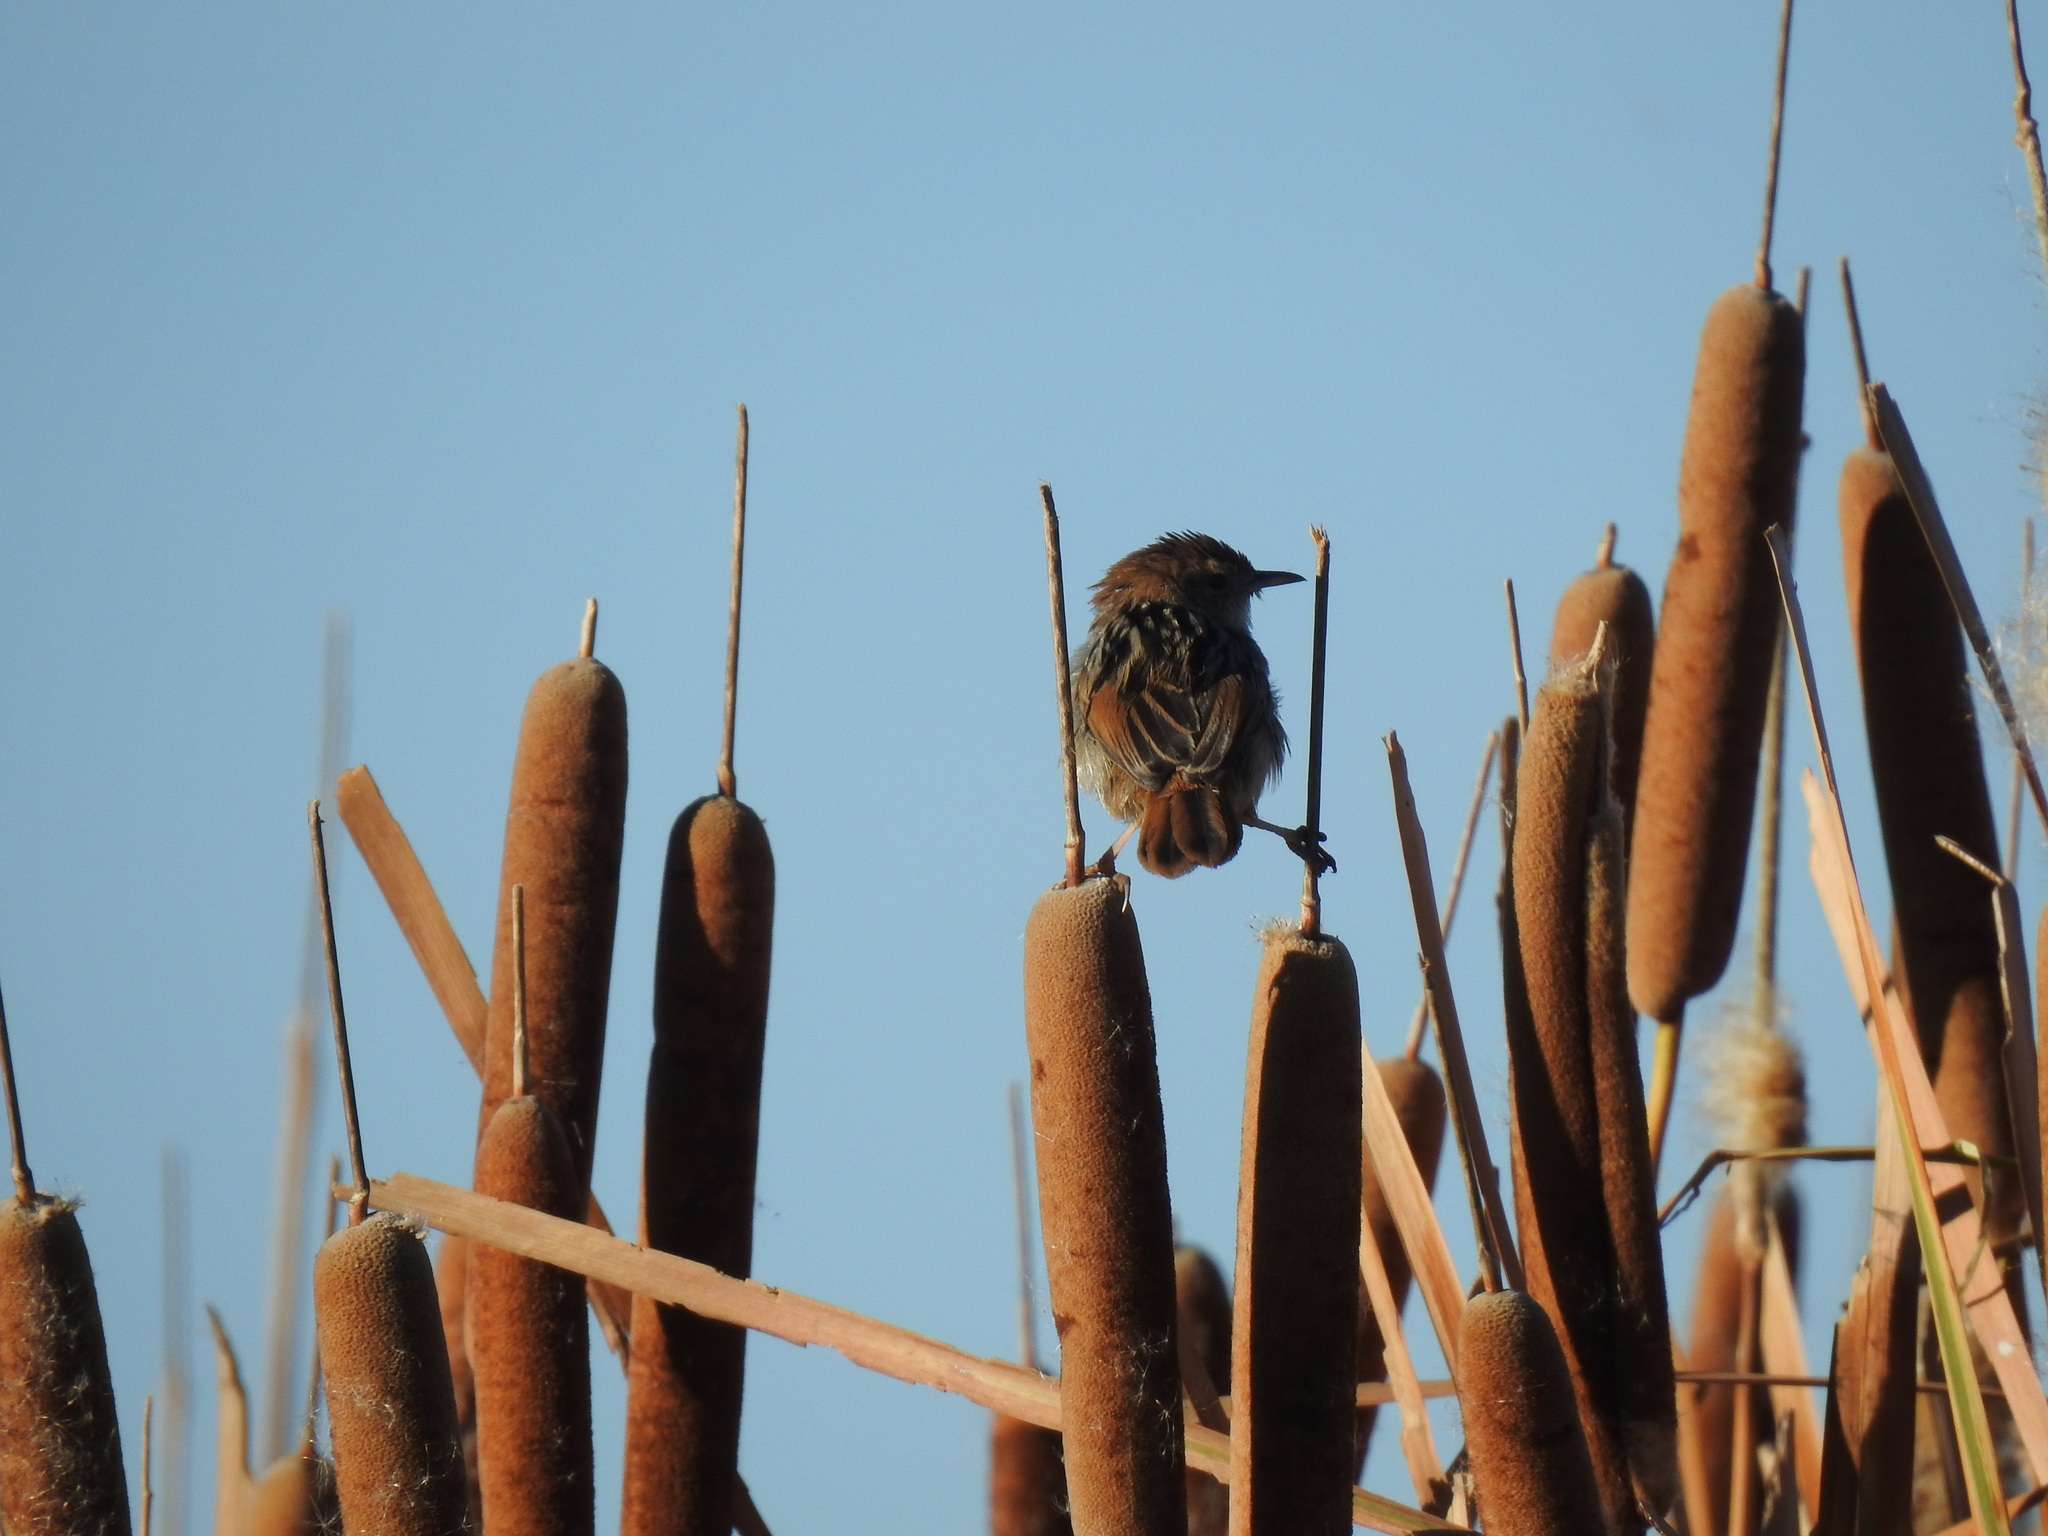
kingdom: Animalia
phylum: Chordata
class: Aves
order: Passeriformes
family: Cisticolidae
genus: Cisticola
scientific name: Cisticola tinniens
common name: Levaillant's cisticola
